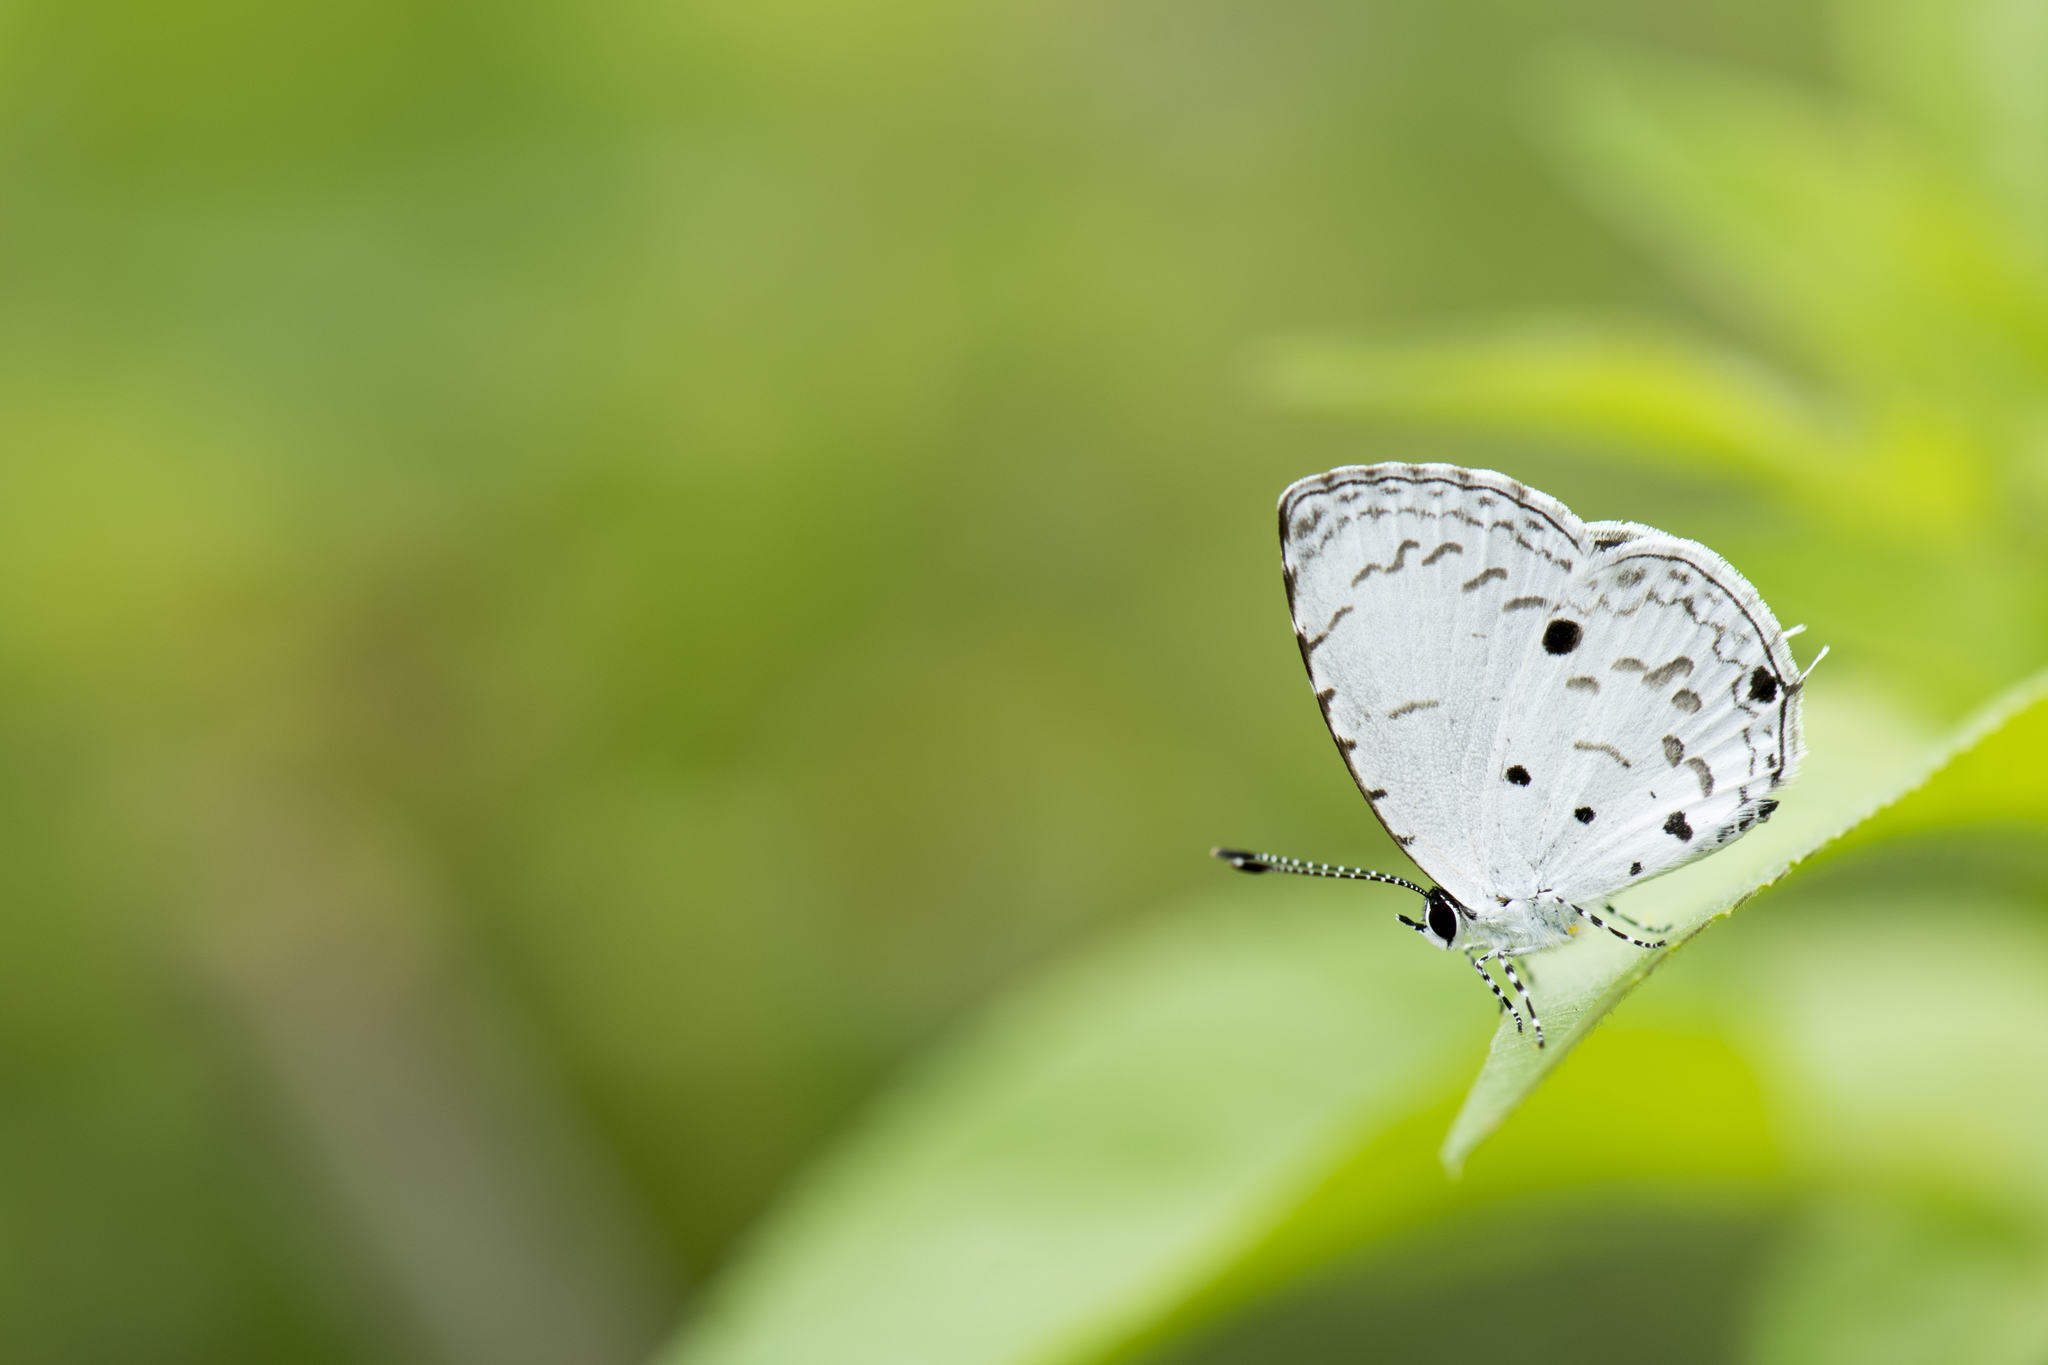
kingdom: Animalia
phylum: Arthropoda
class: Insecta
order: Lepidoptera
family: Lycaenidae
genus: Megisba
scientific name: Megisba malaya
